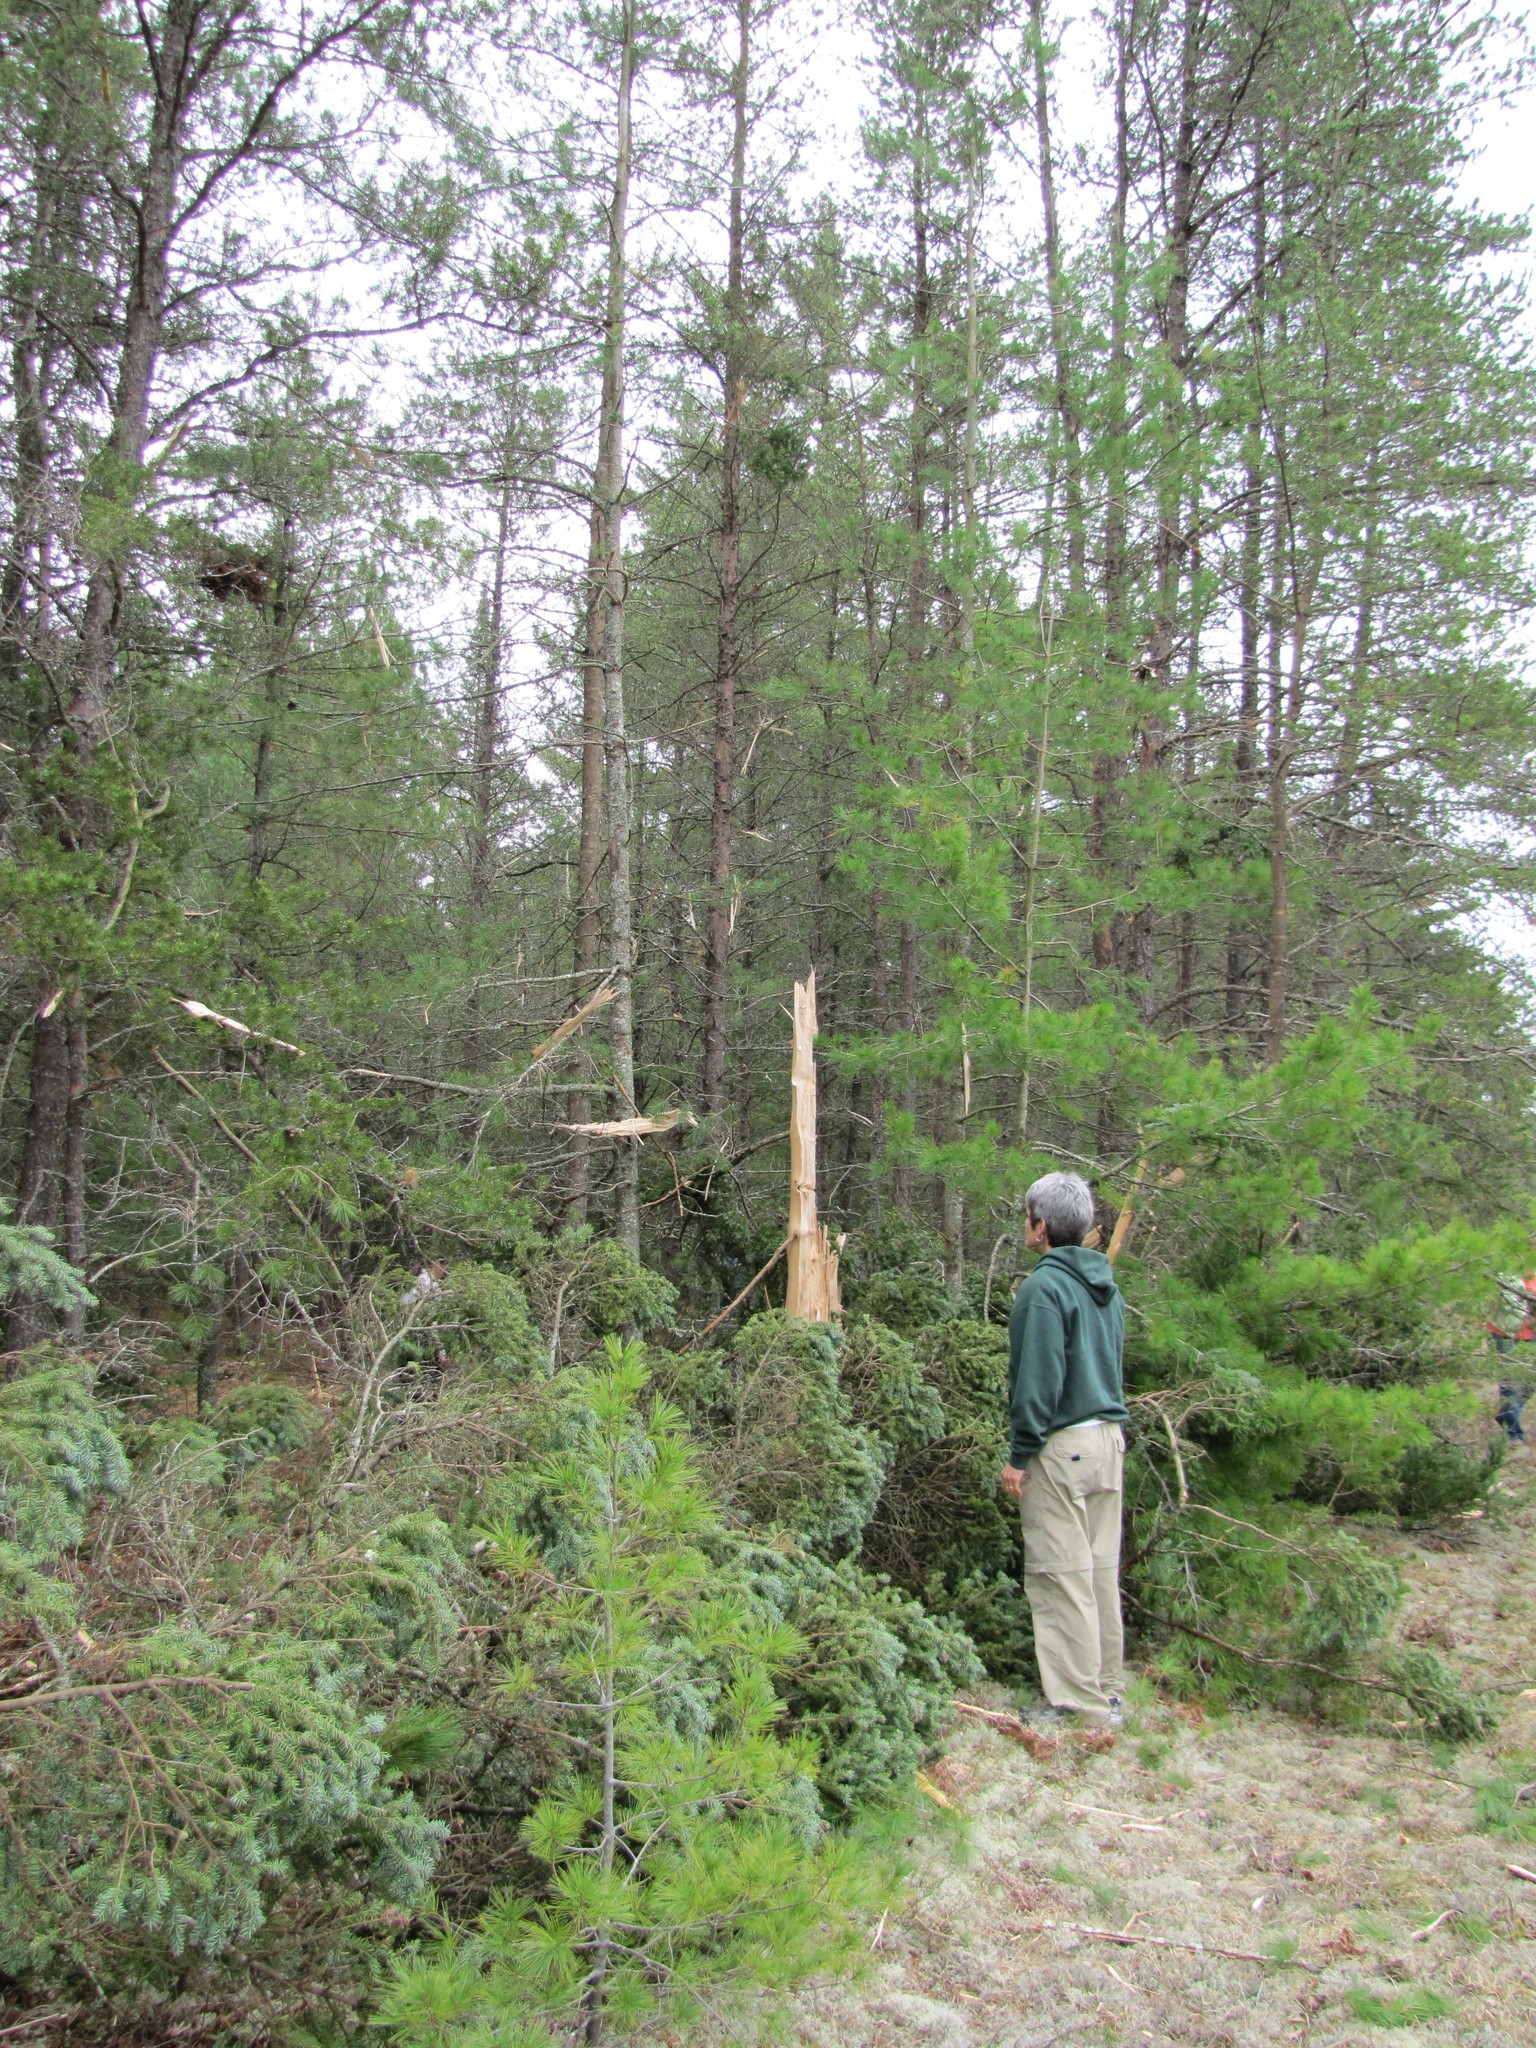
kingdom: Plantae
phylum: Tracheophyta
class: Pinopsida
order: Pinales
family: Pinaceae
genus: Picea
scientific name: Picea glauca
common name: White spruce
